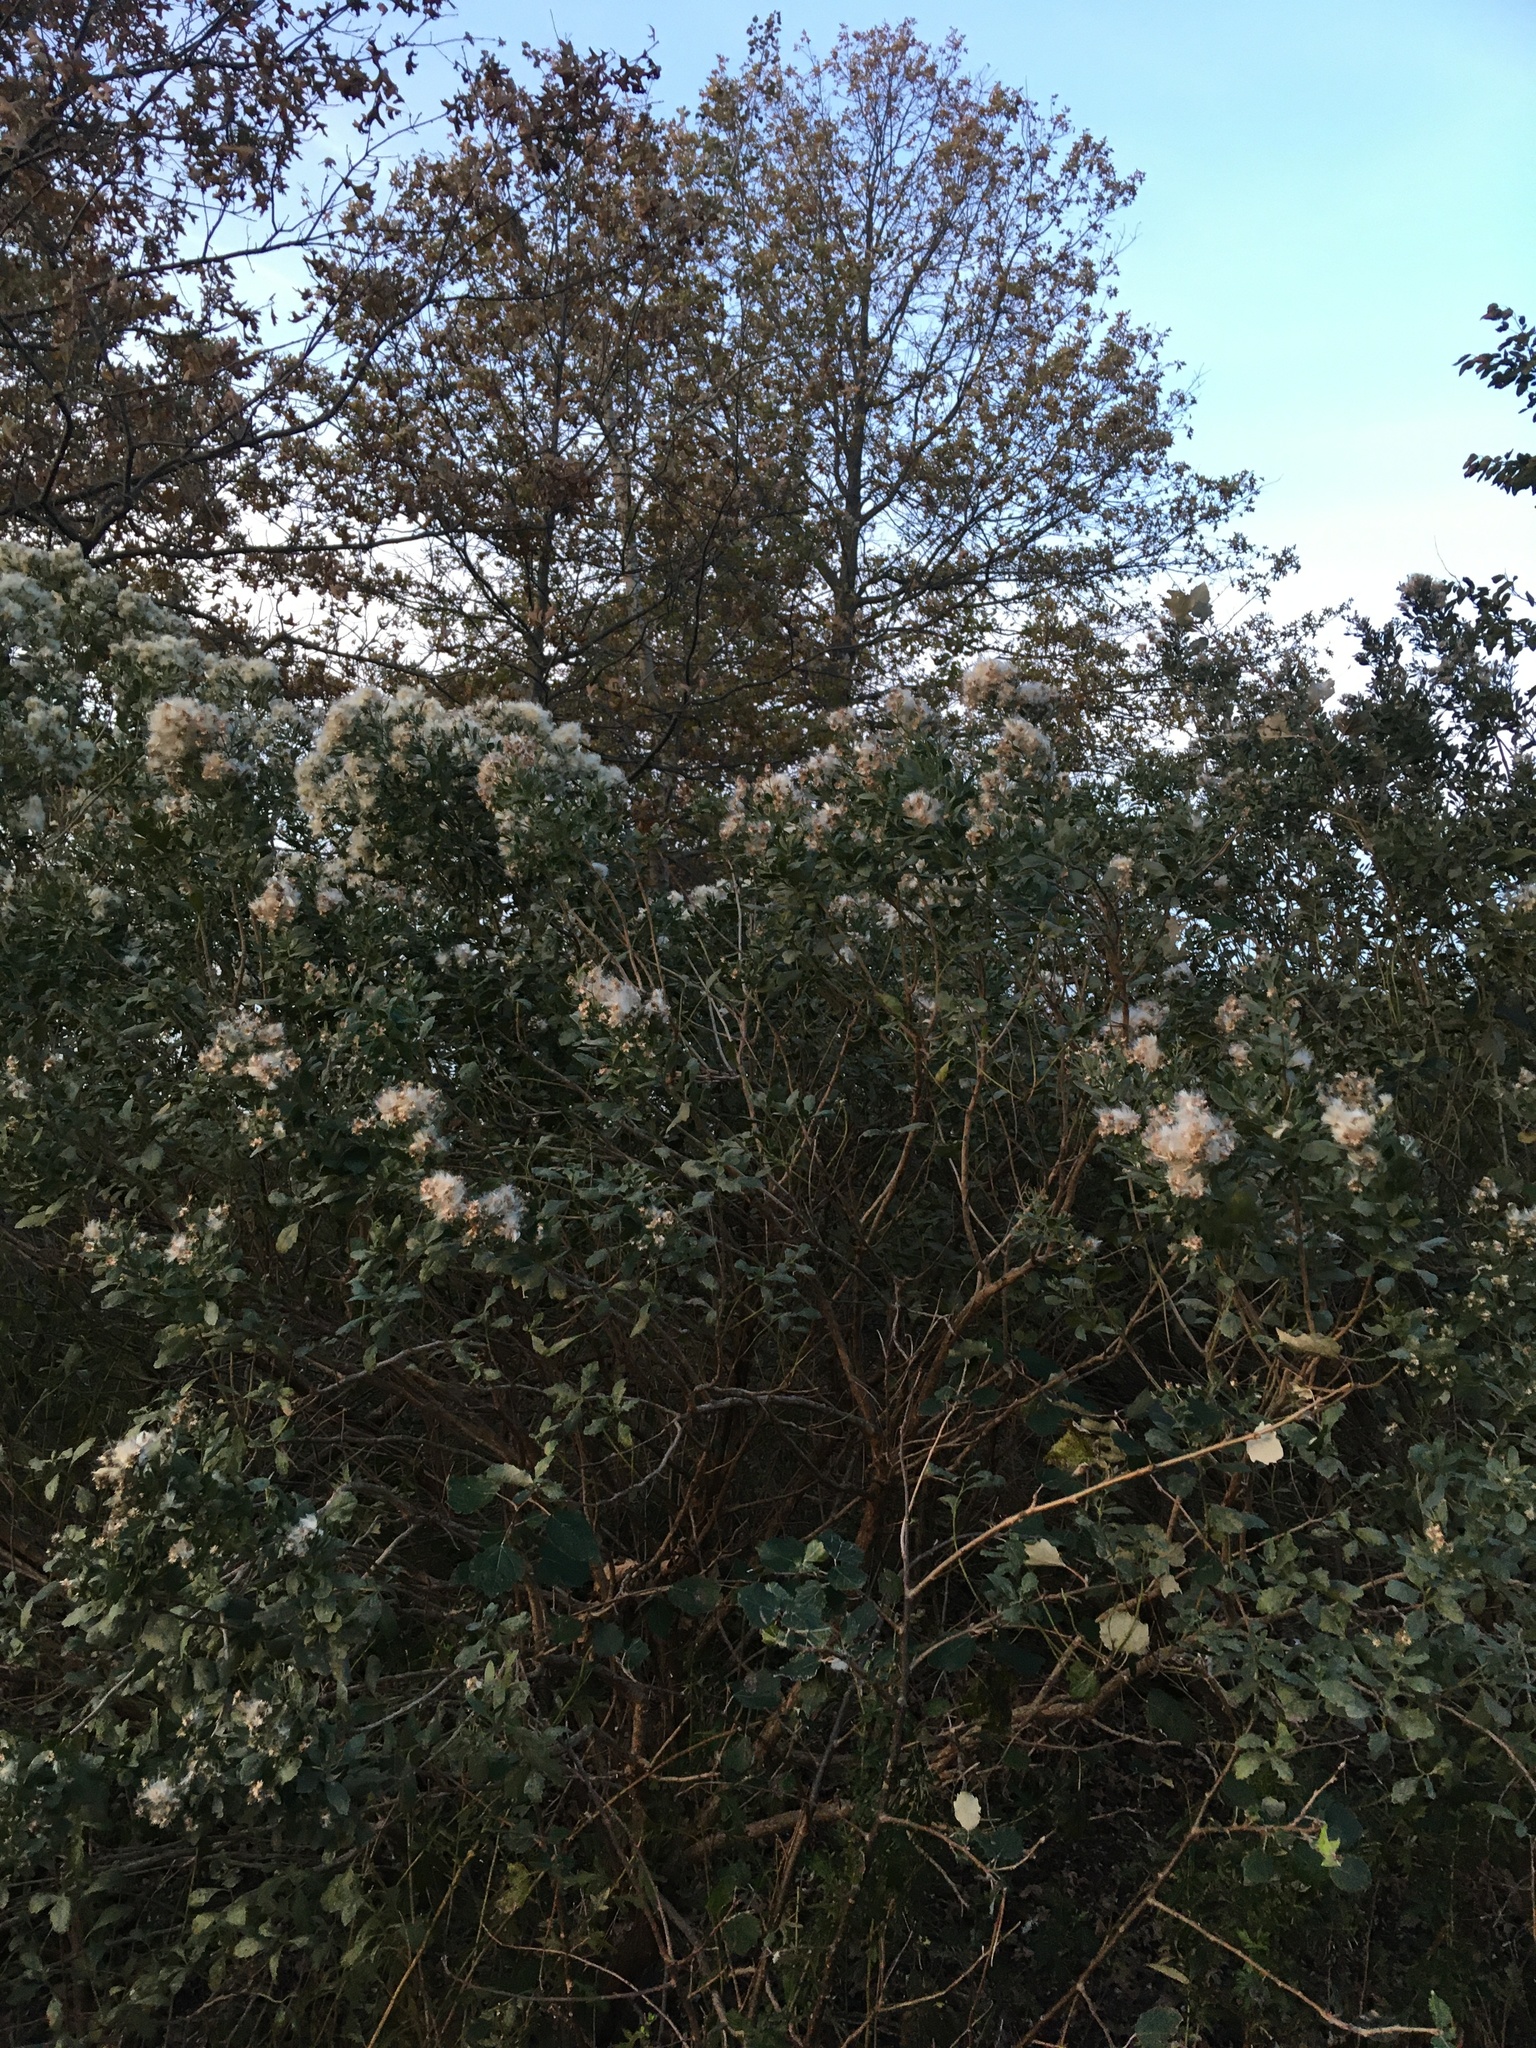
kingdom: Plantae
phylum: Tracheophyta
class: Magnoliopsida
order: Asterales
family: Asteraceae
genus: Baccharis
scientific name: Baccharis halimifolia
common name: Eastern baccharis
